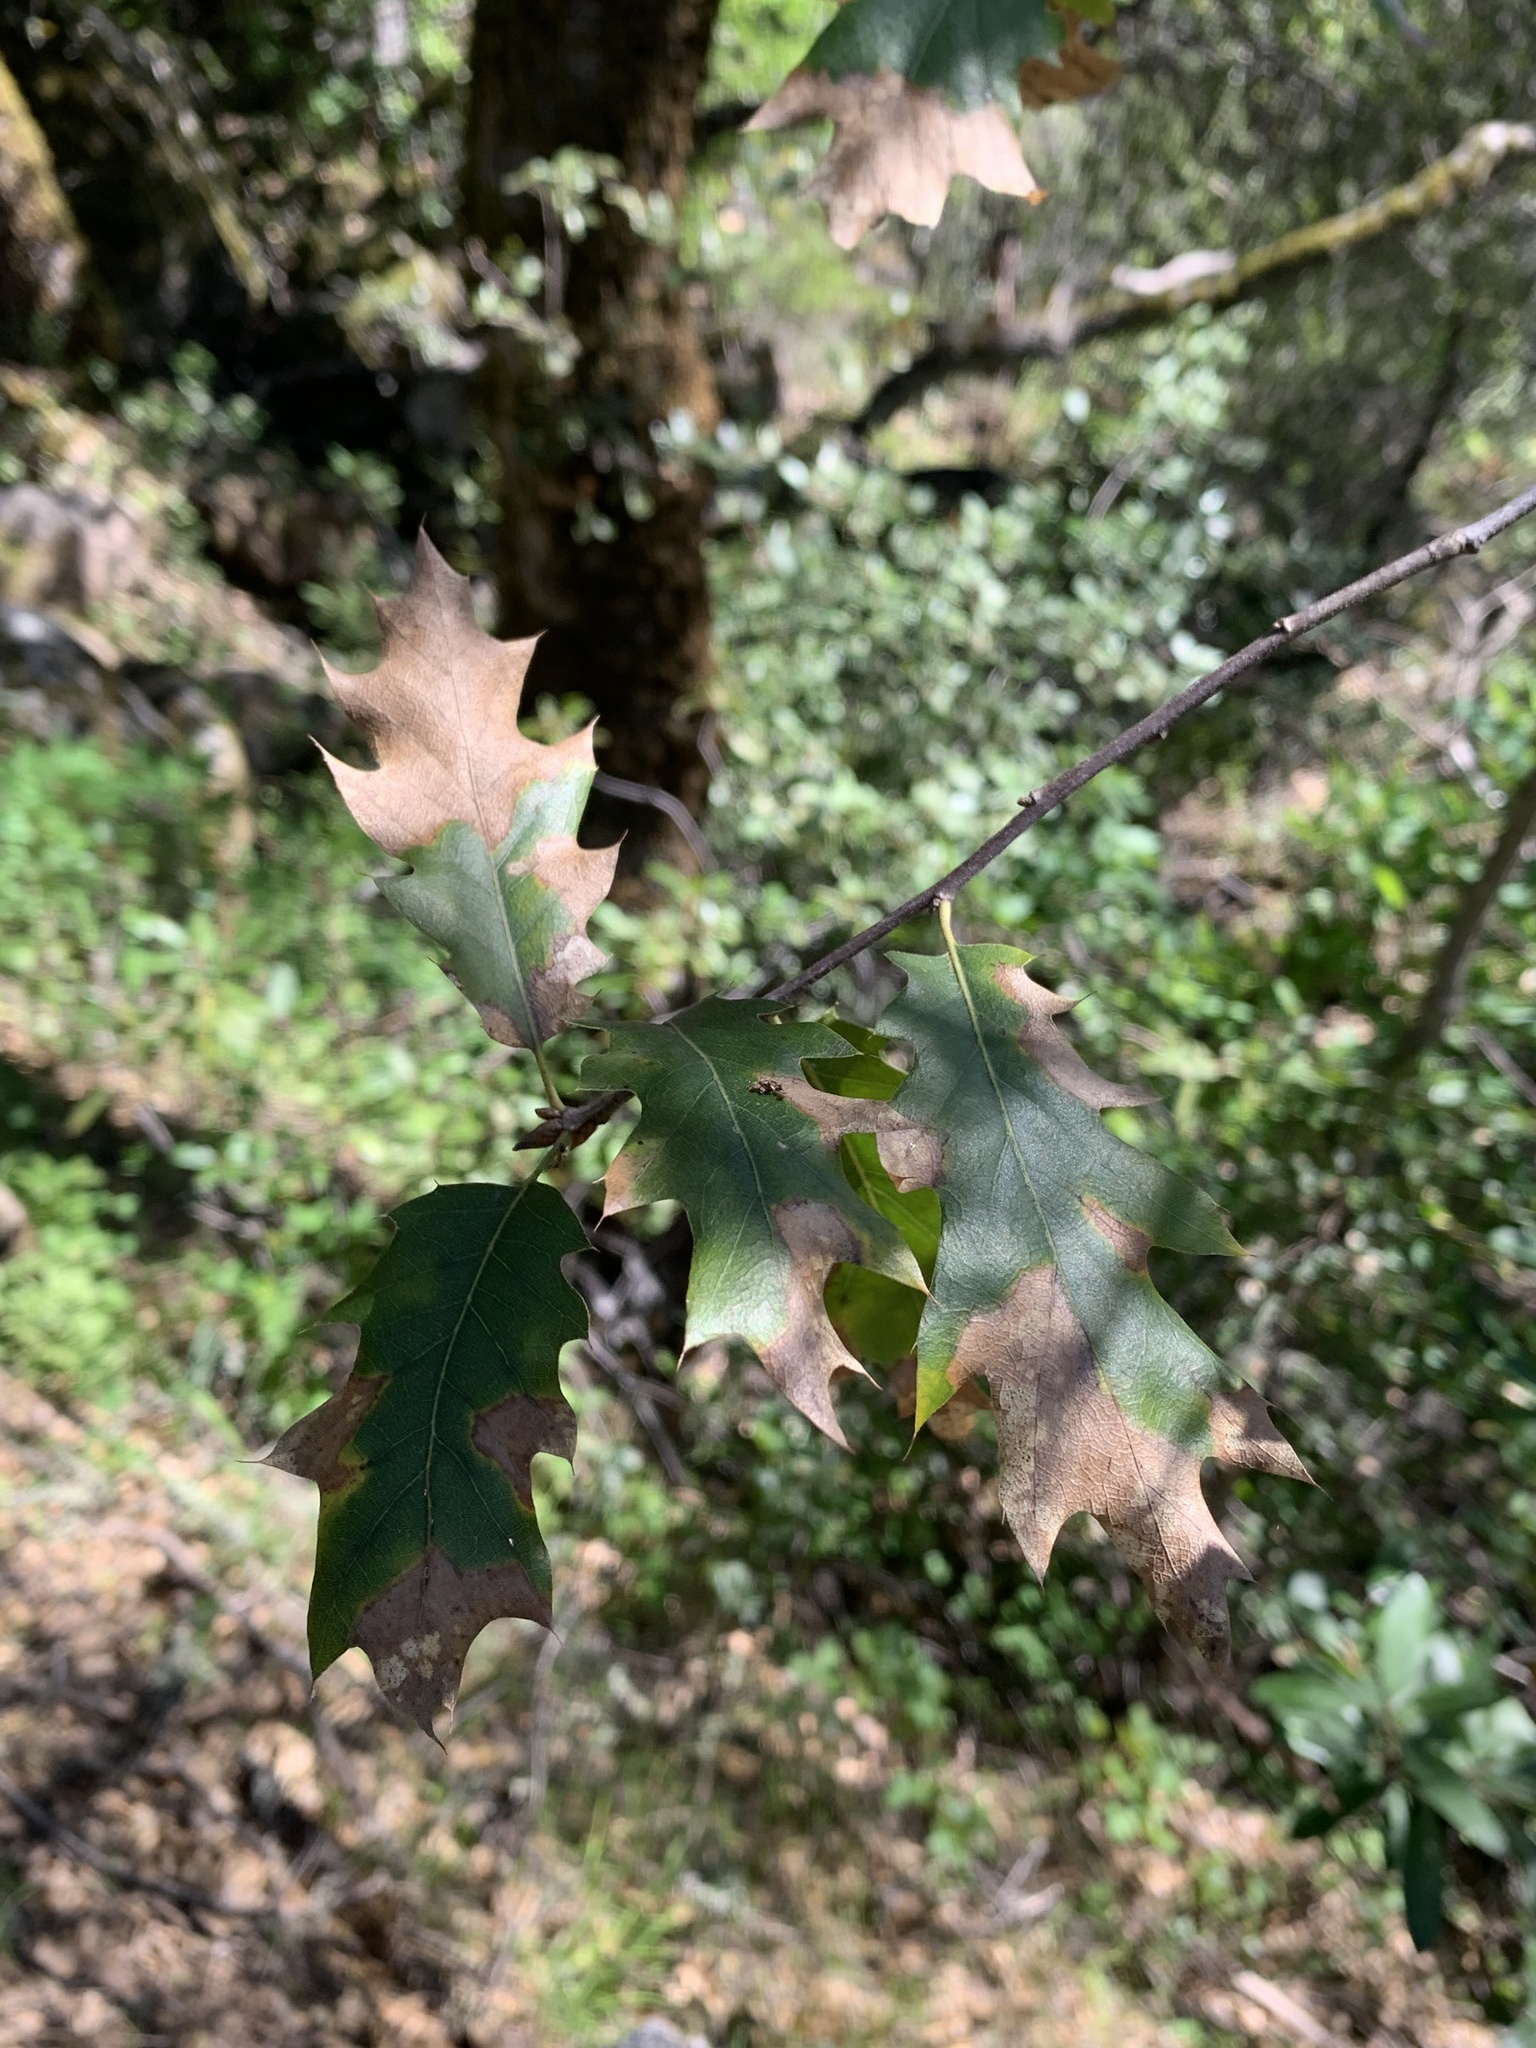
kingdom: Plantae
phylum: Tracheophyta
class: Magnoliopsida
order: Fagales
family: Fagaceae
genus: Quercus
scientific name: Quercus morehus
